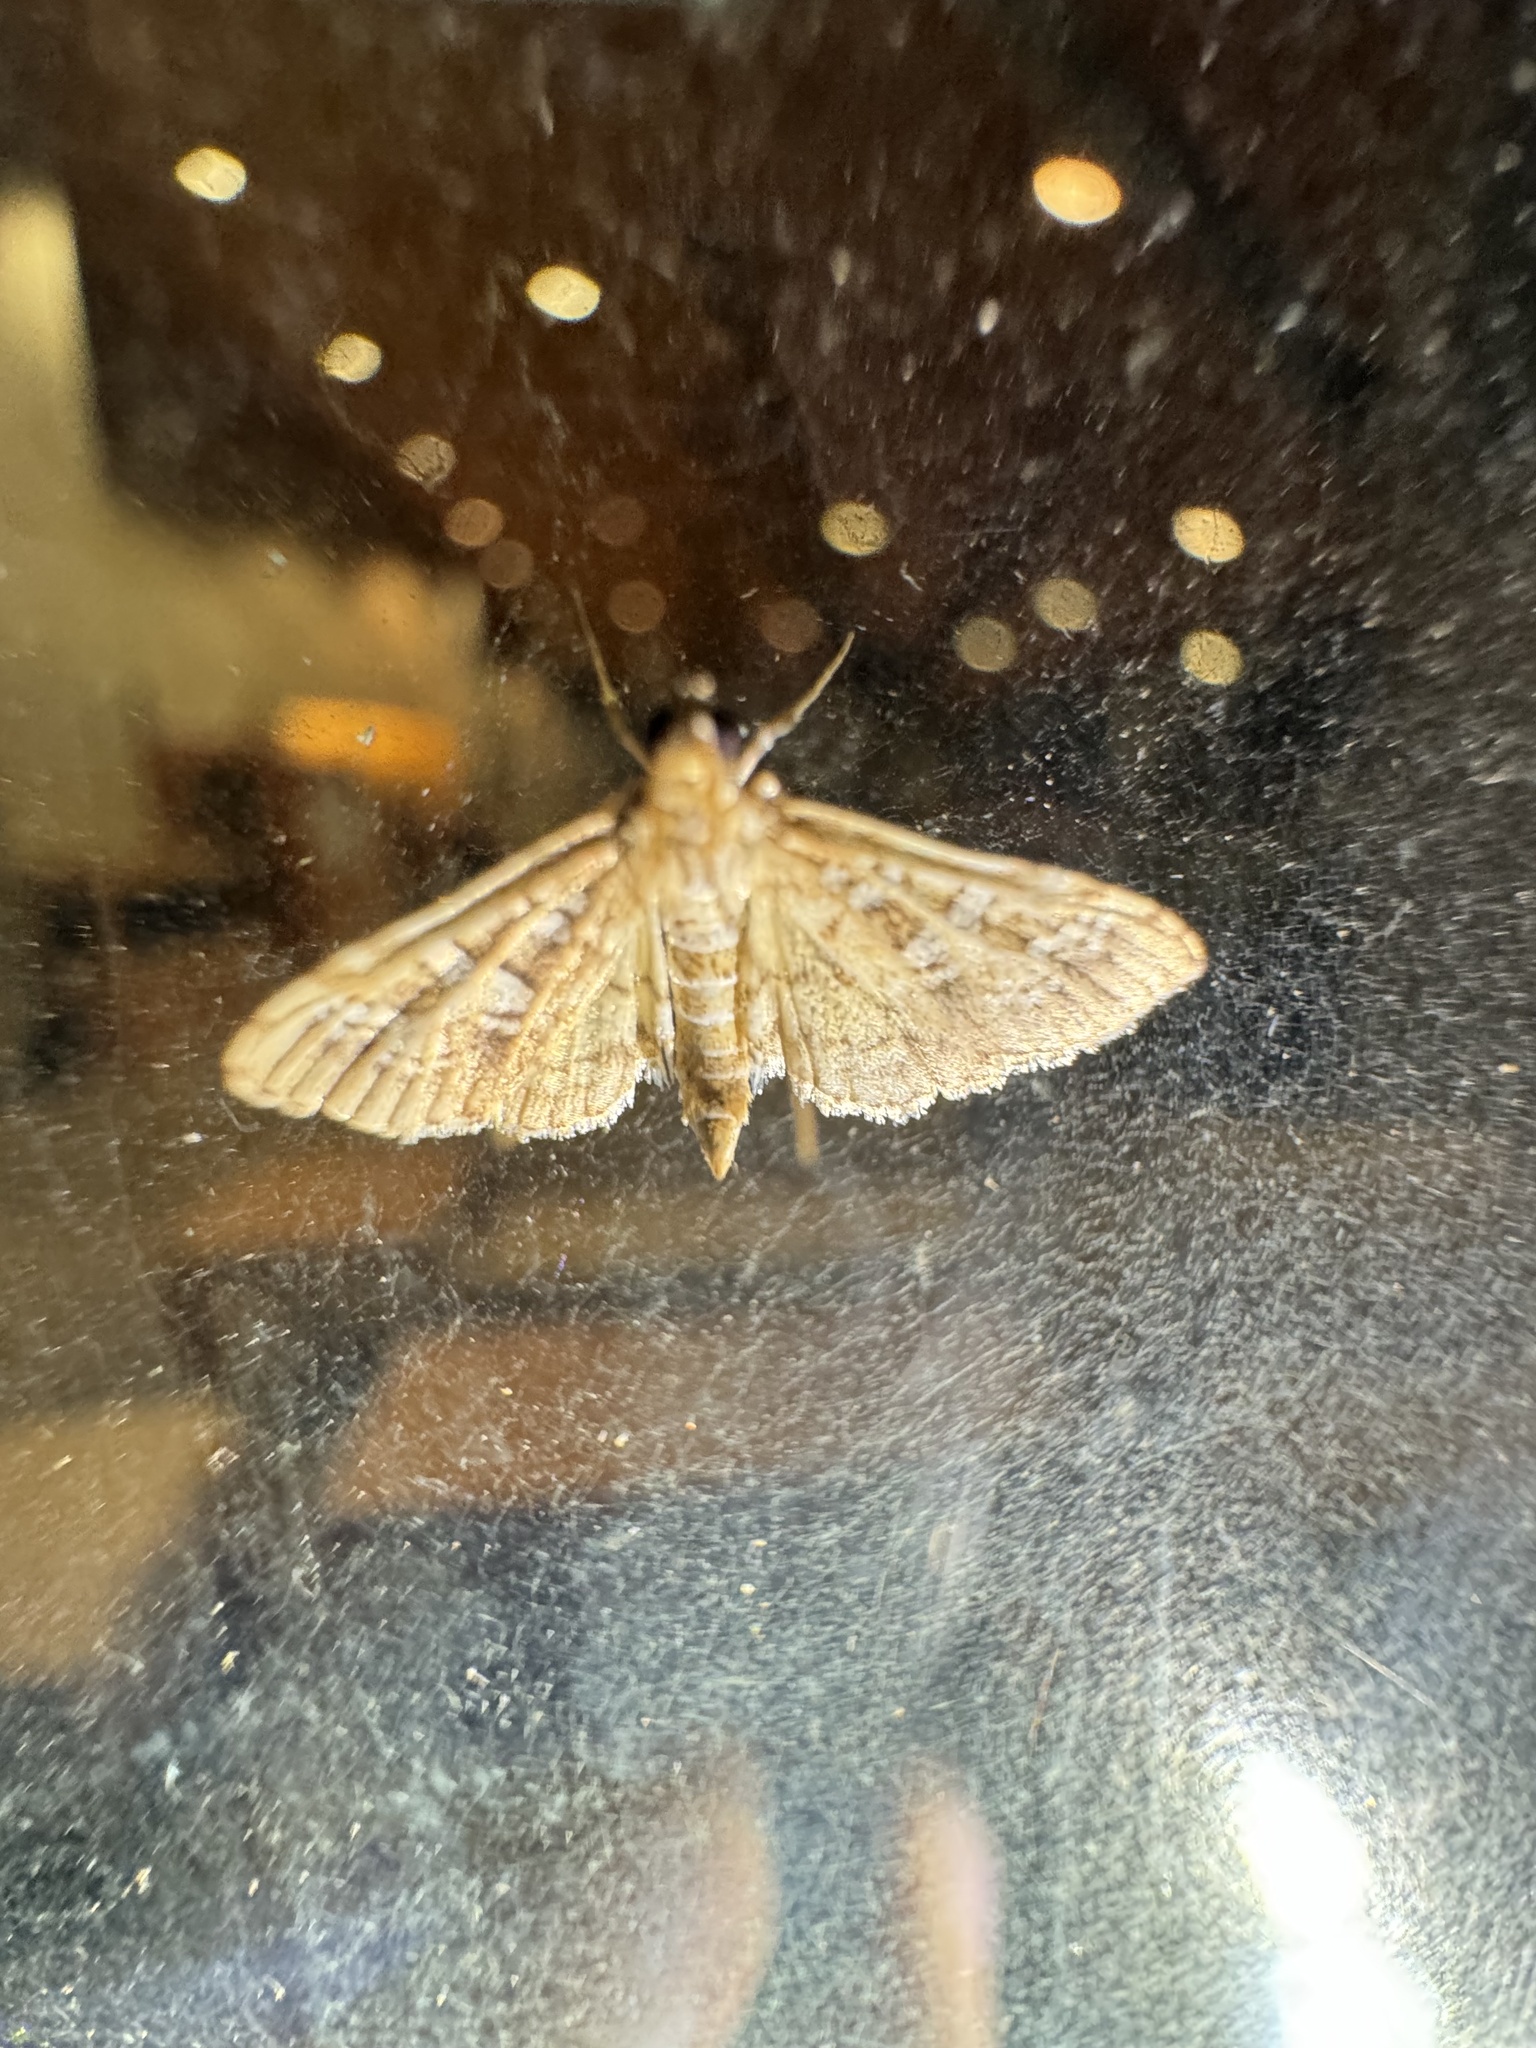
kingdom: Animalia
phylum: Arthropoda
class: Insecta
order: Lepidoptera
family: Crambidae
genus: Samea
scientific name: Samea multiplicalis
